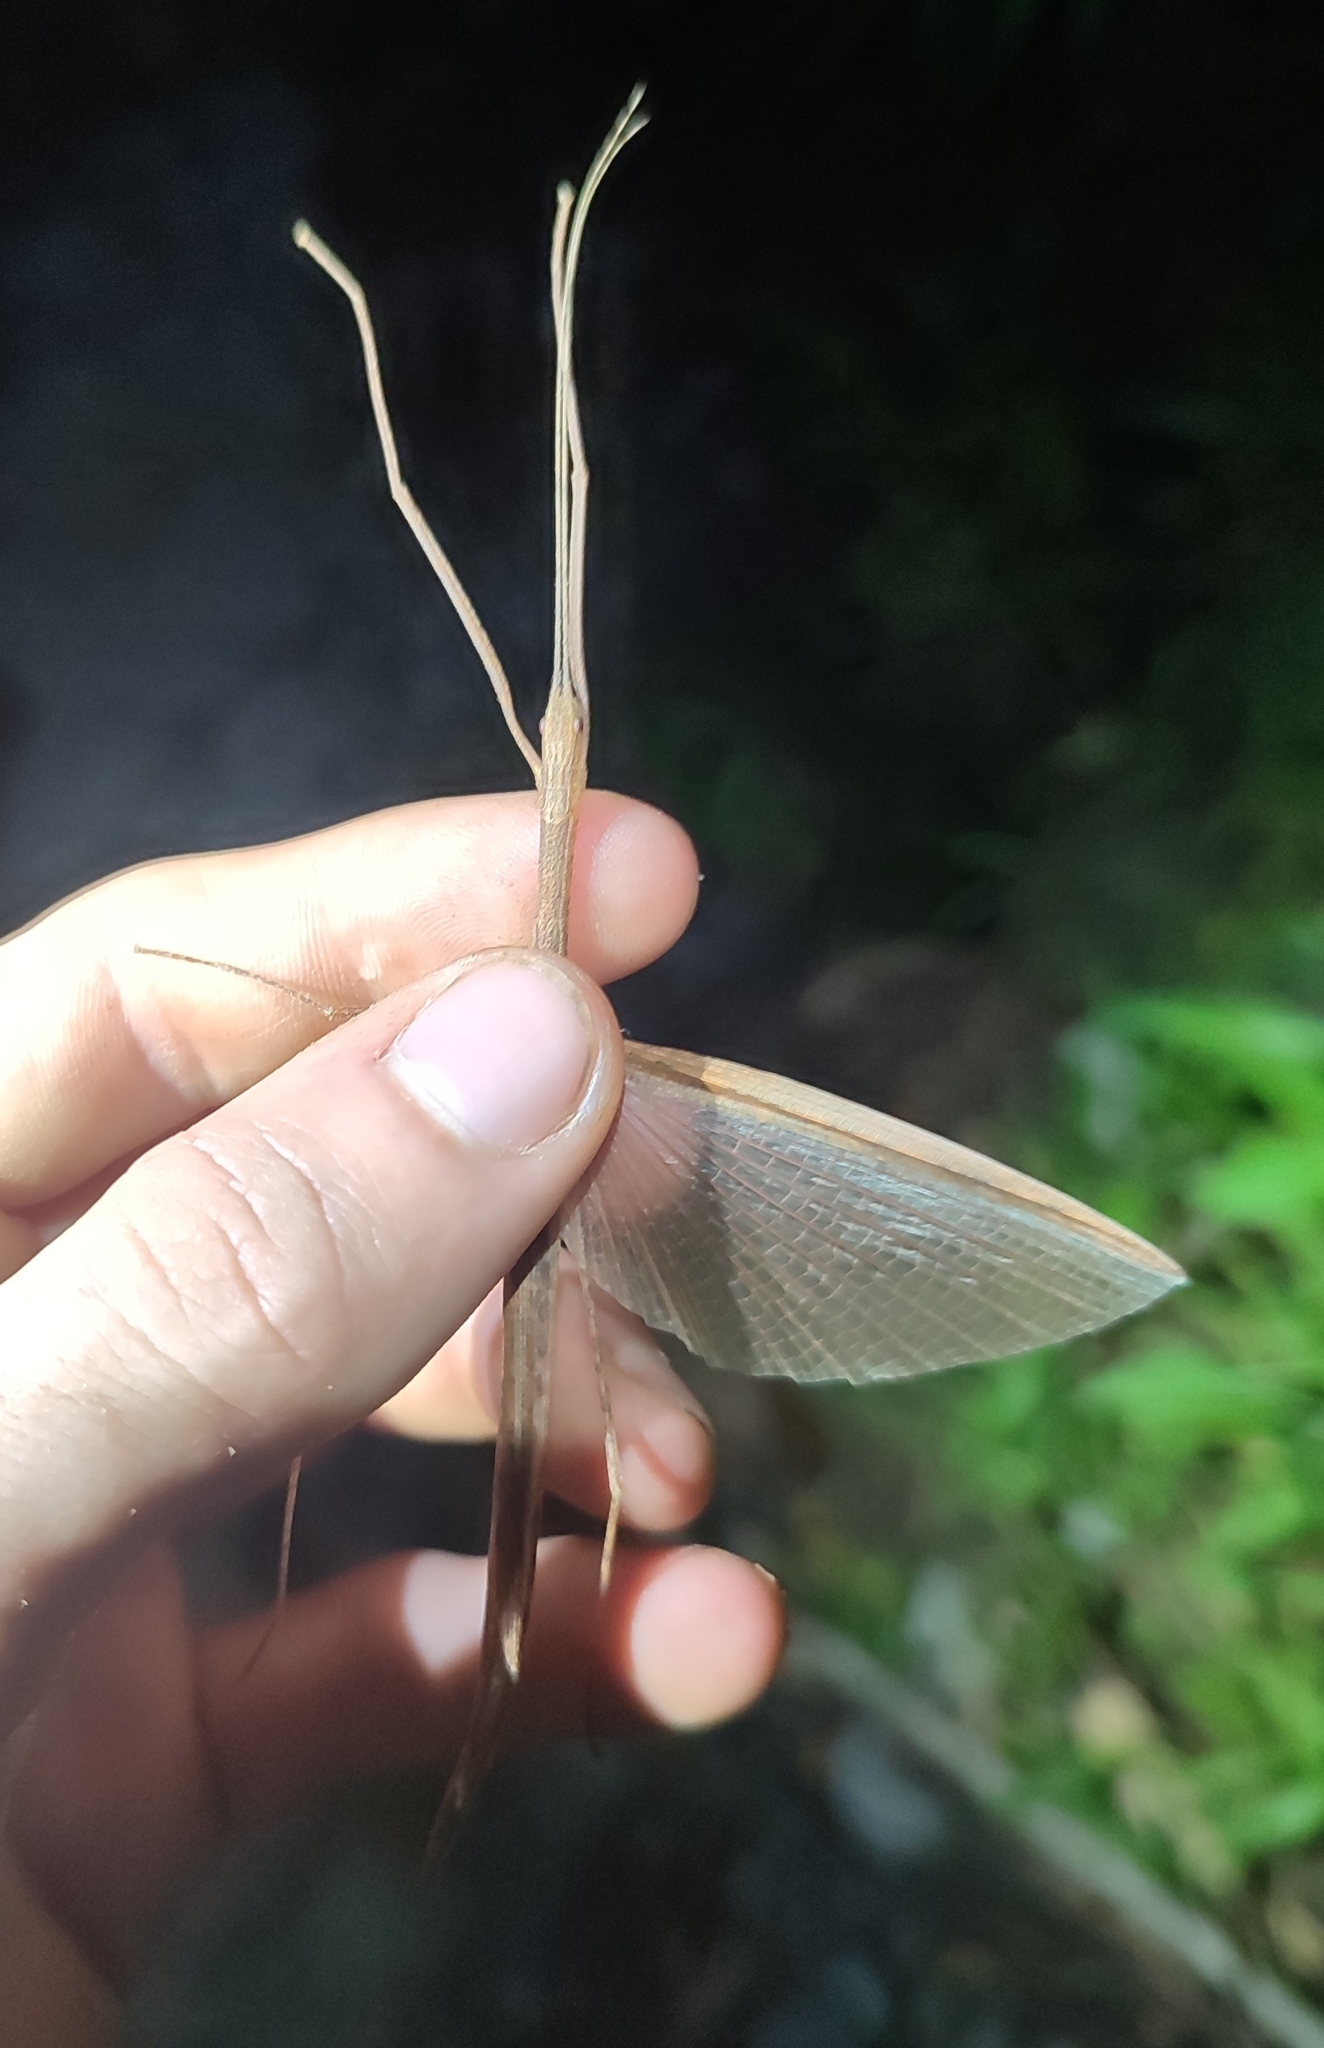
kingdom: Animalia
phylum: Arthropoda
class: Insecta
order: Phasmida
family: Lonchodidae
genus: Sipyloidea
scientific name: Sipyloidea sipylus
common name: Madagascan stick insect
